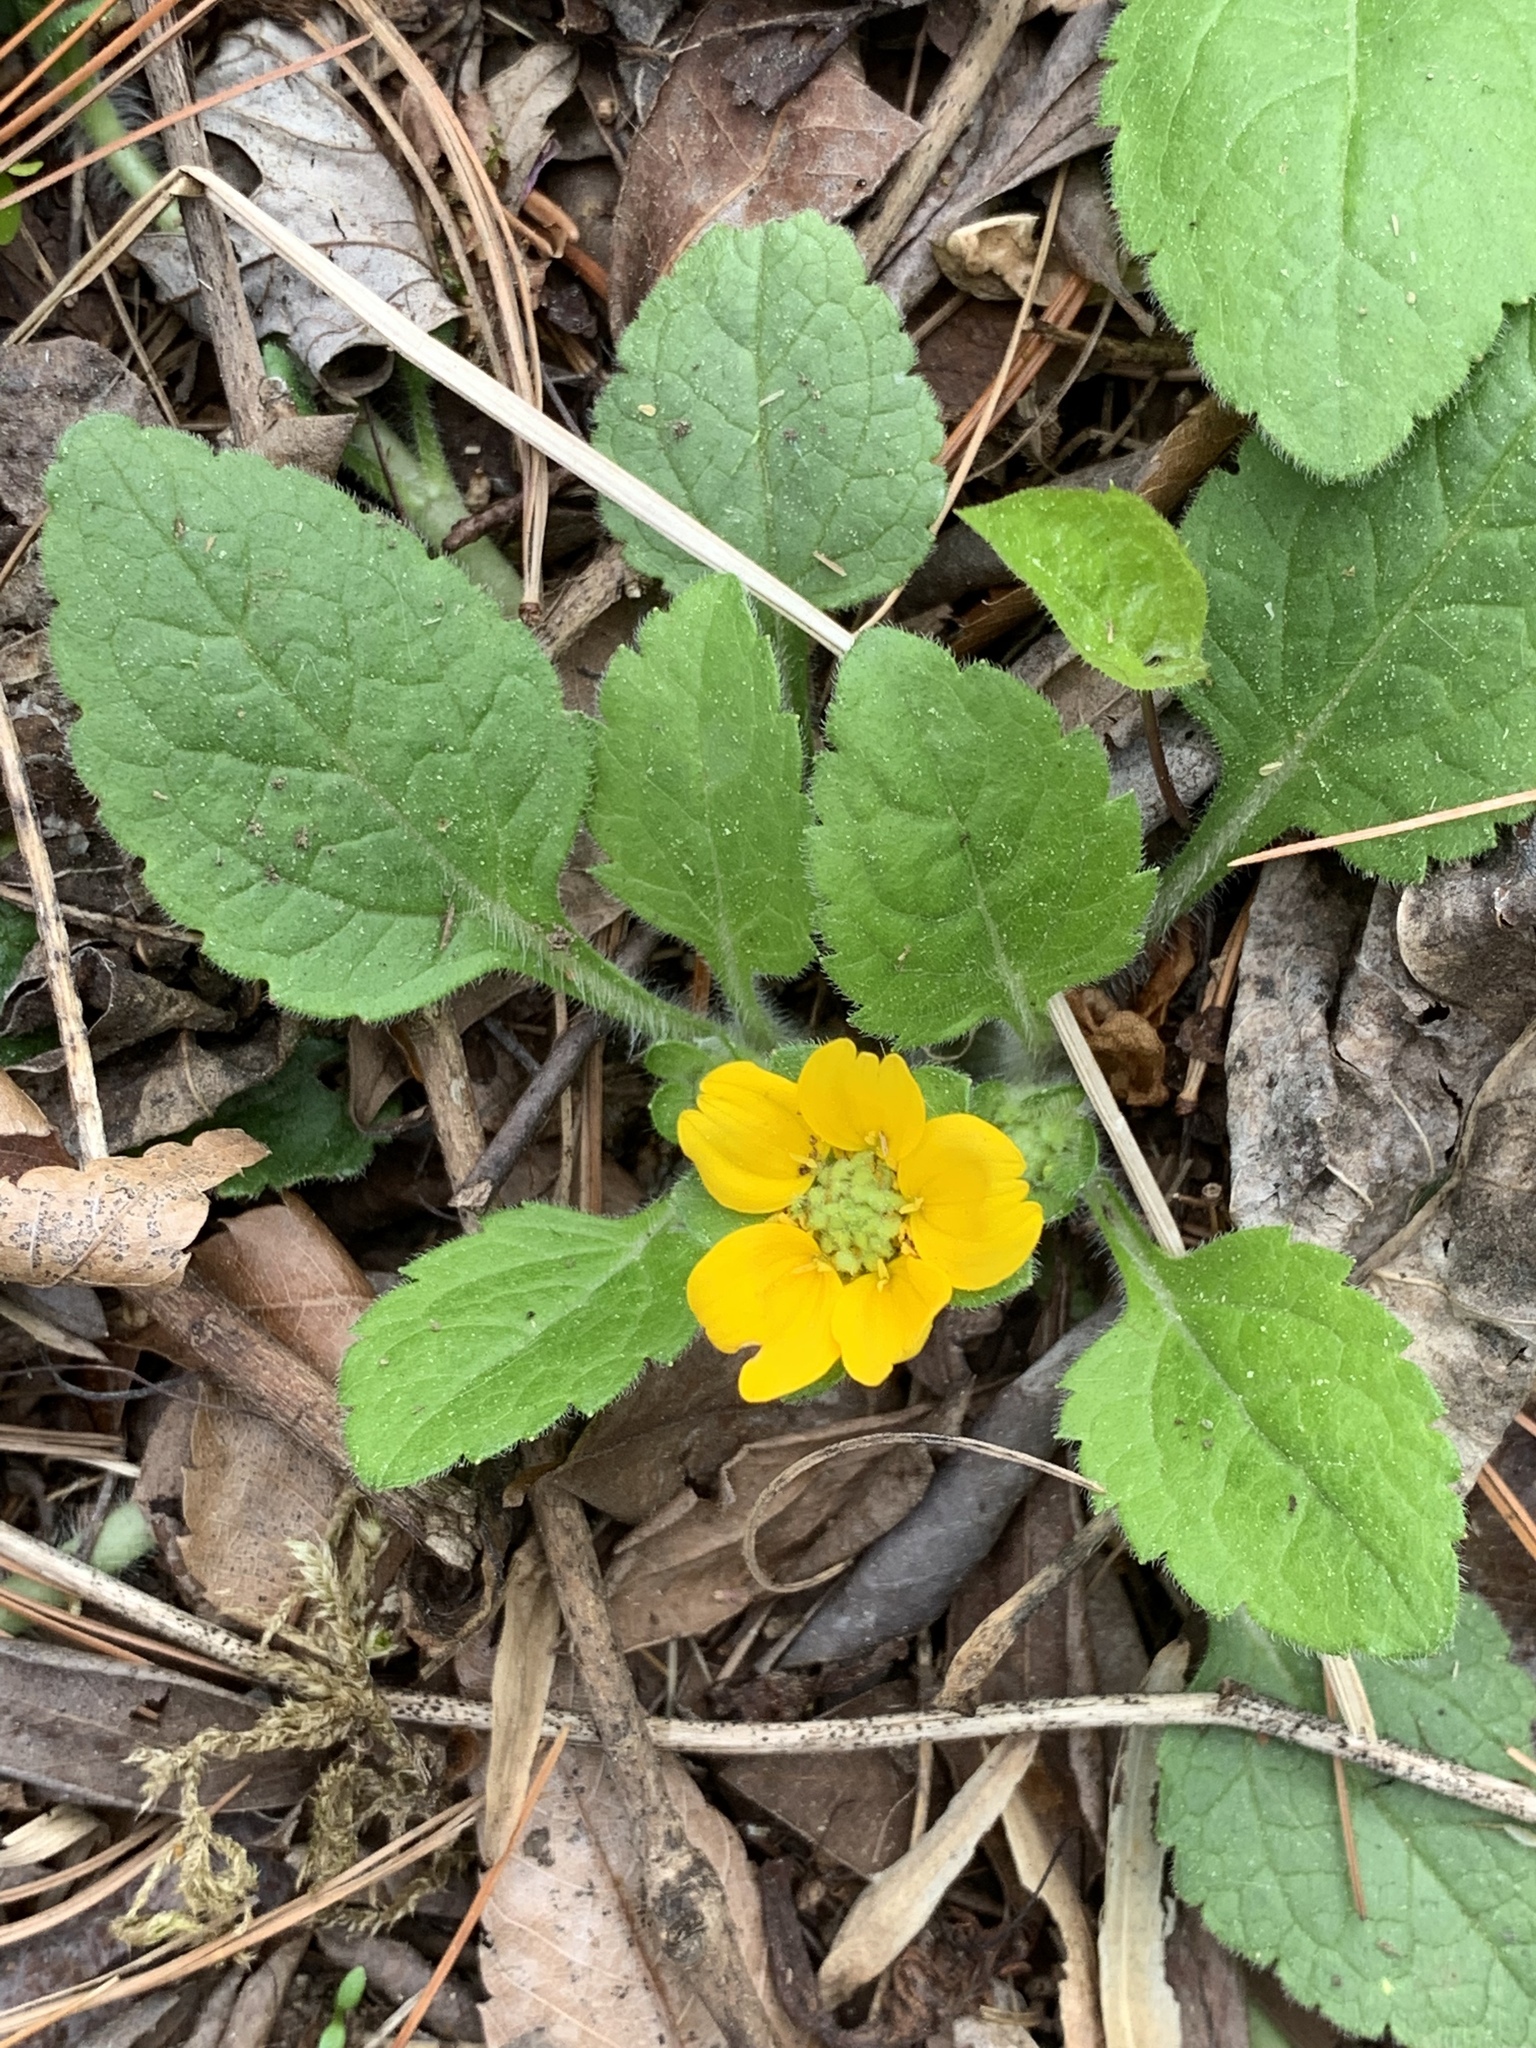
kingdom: Plantae
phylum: Tracheophyta
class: Magnoliopsida
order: Asterales
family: Asteraceae
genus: Chrysogonum
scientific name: Chrysogonum virginianum
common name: Golden-knee
